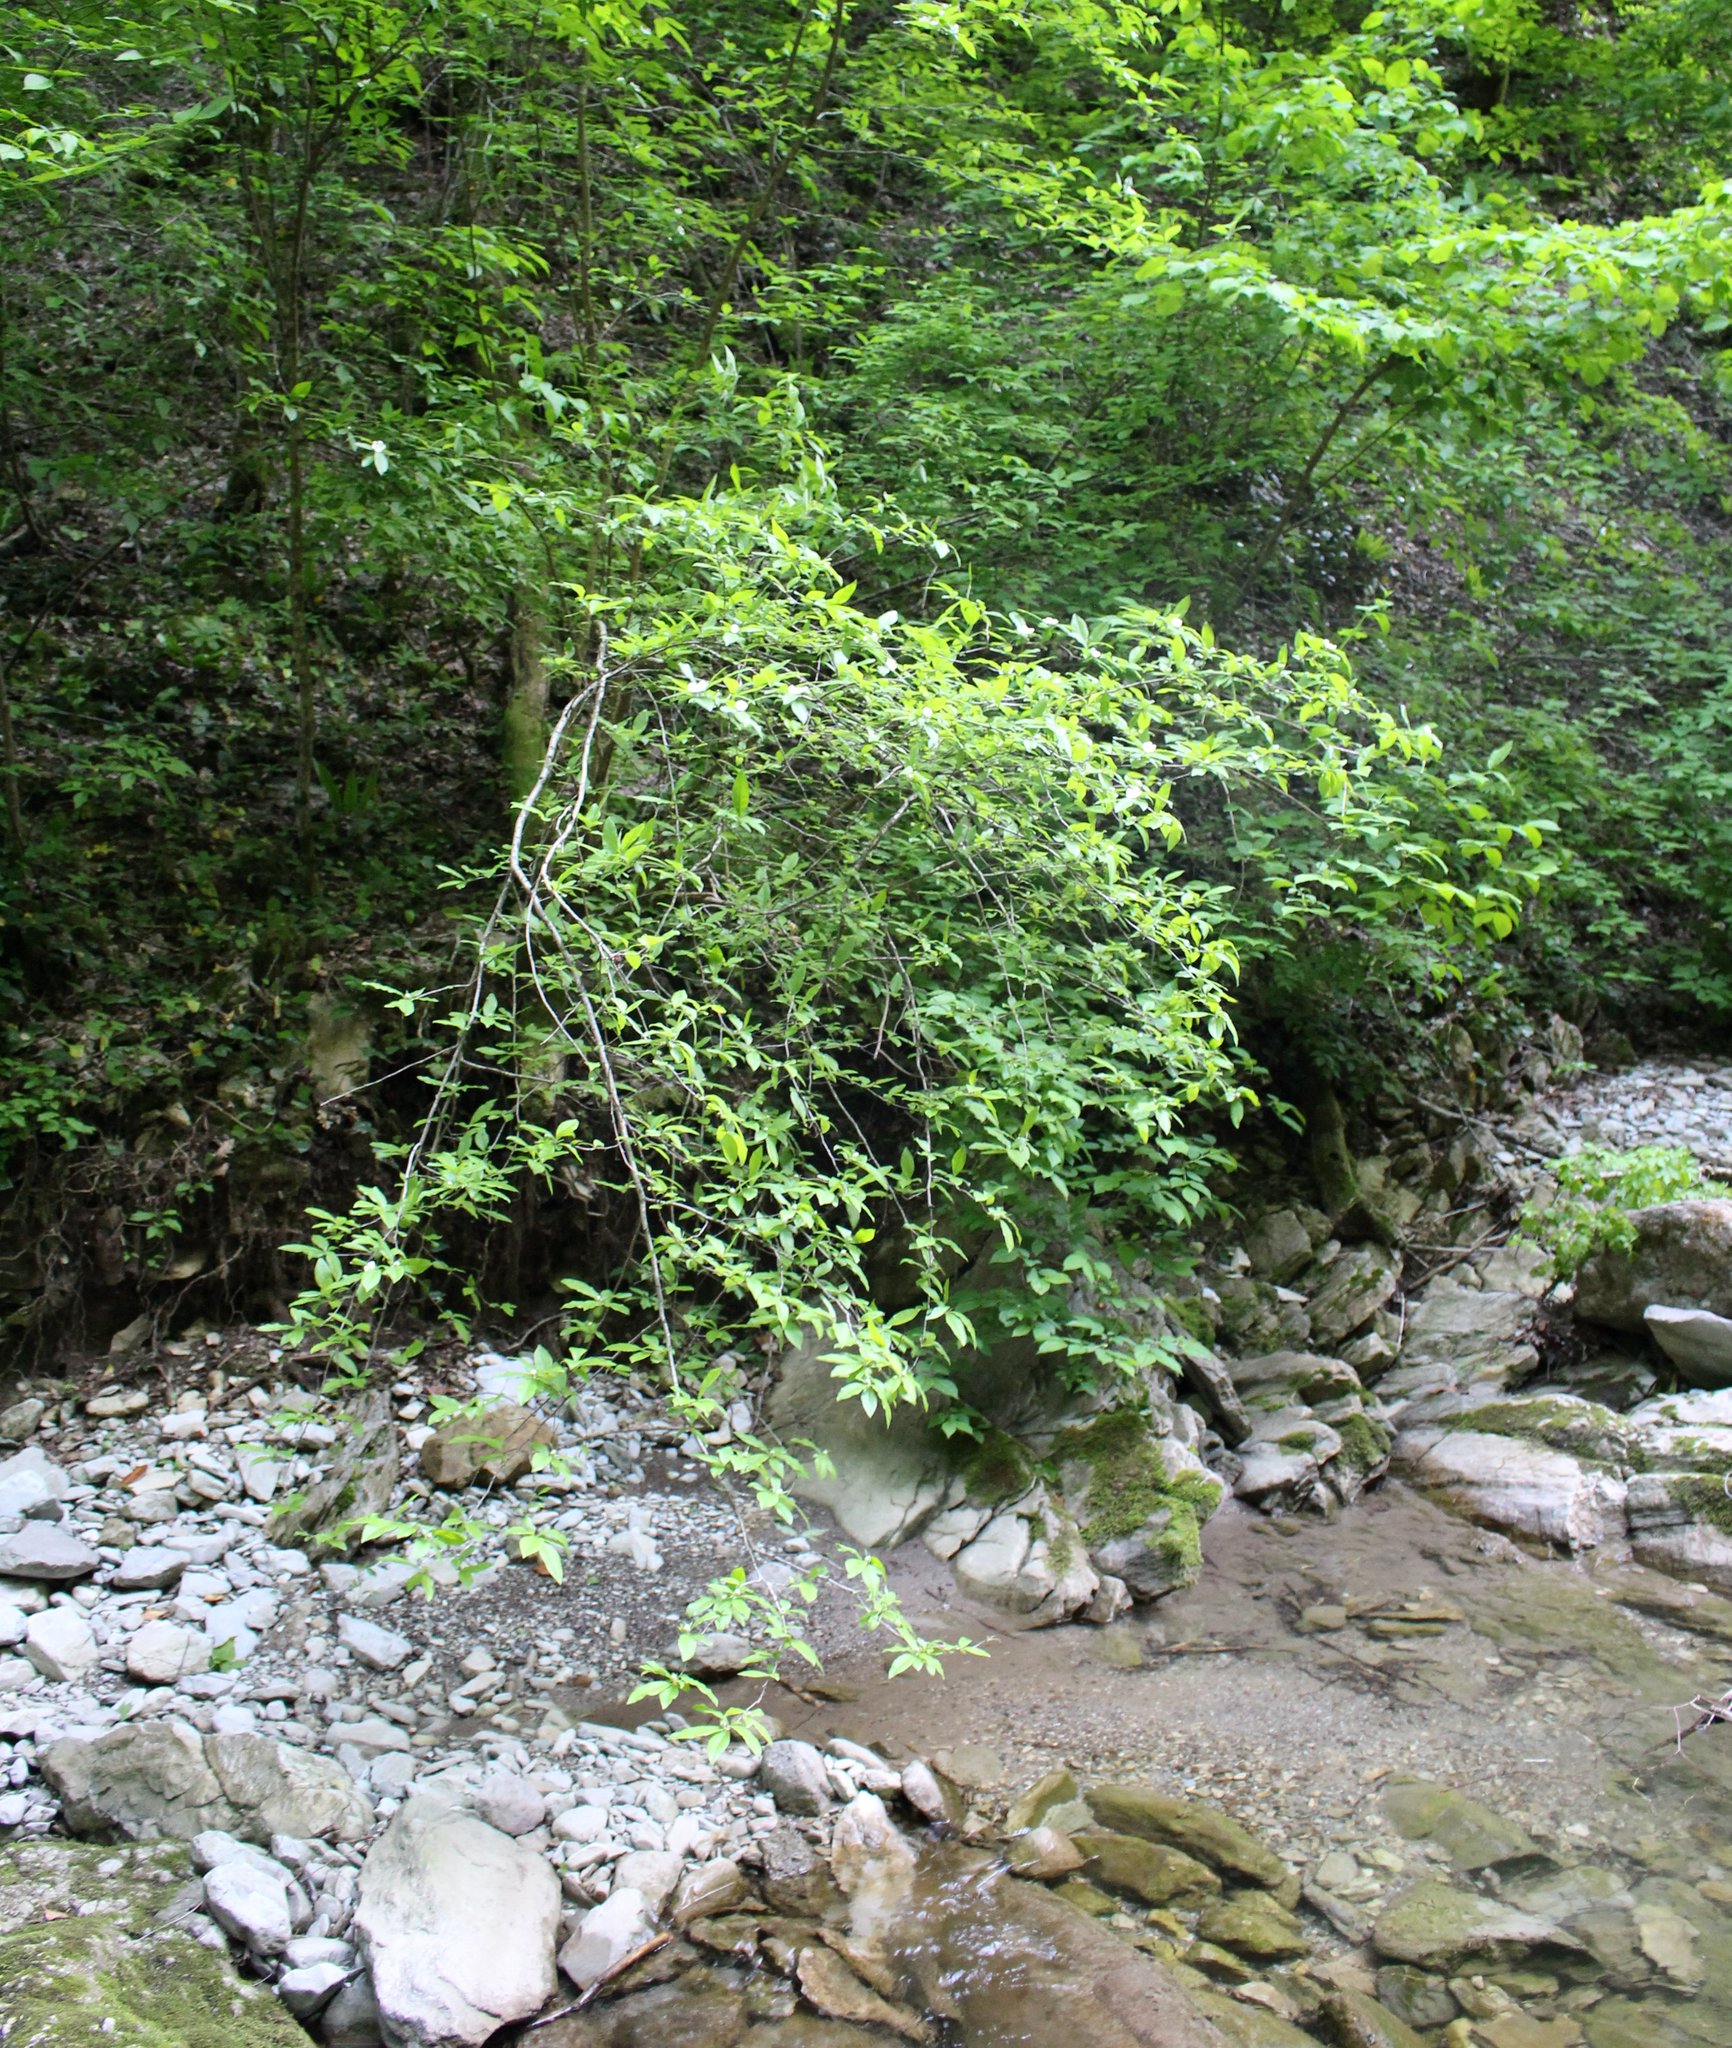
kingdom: Plantae
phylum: Tracheophyta
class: Magnoliopsida
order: Crossosomatales
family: Staphyleaceae
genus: Staphylea
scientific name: Staphylea colchica
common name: Caucasian bladdernut
